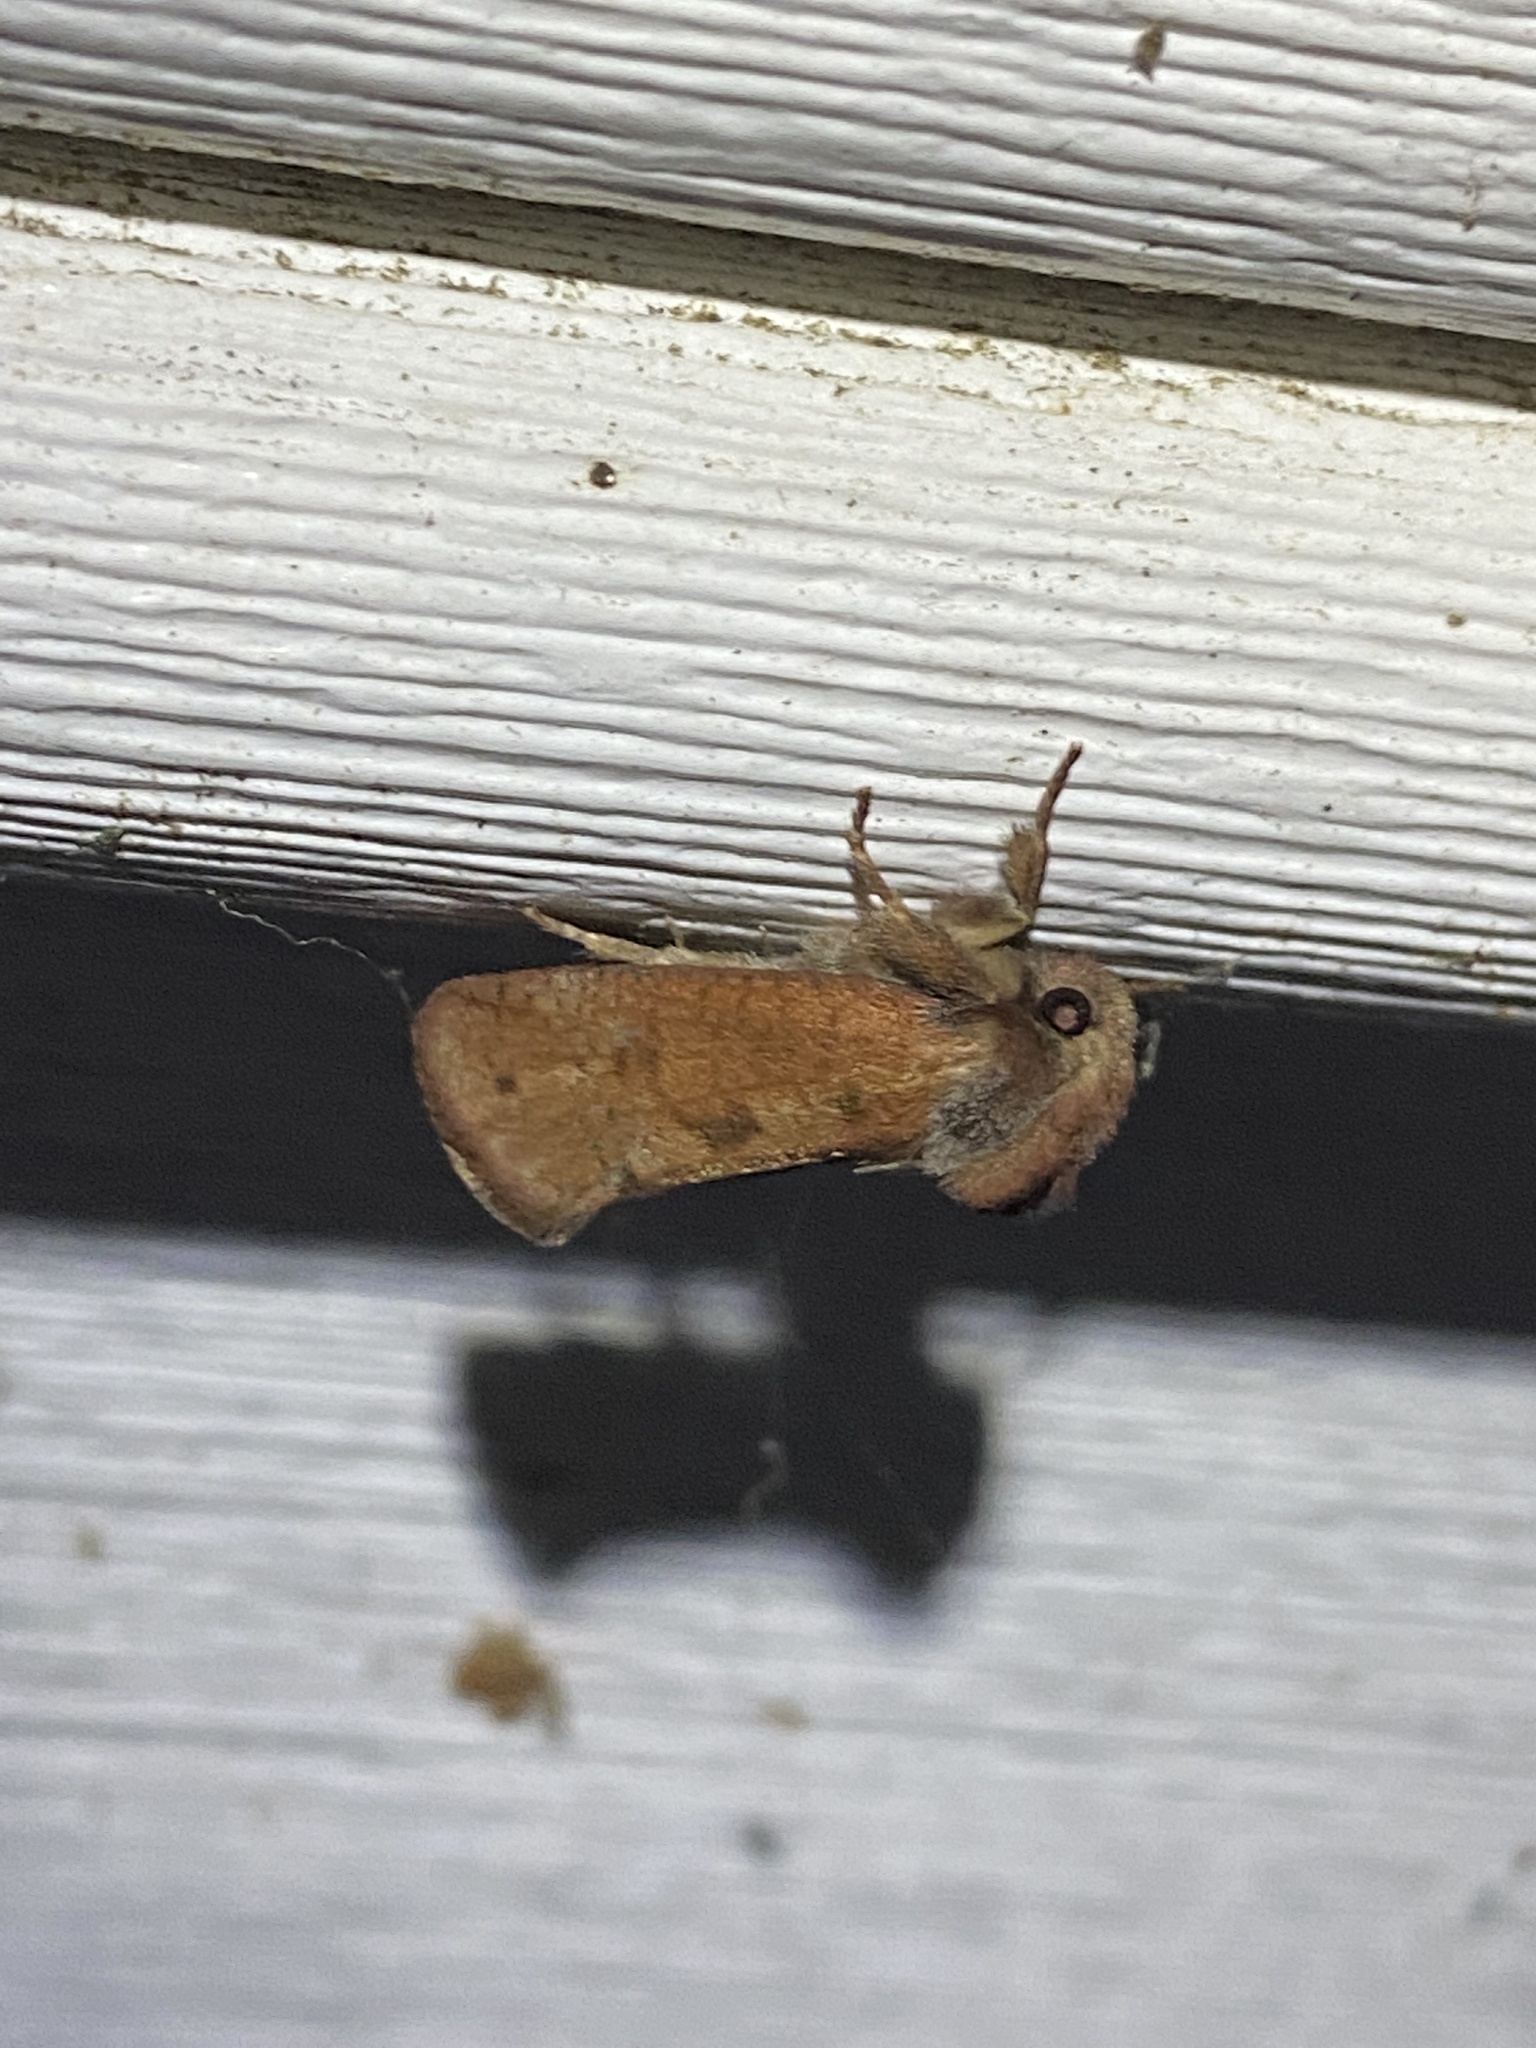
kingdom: Animalia
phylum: Arthropoda
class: Insecta
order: Lepidoptera
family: Tineidae
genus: Acrolophus
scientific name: Acrolophus plumifrontella
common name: Eastern grass tubeworm moth
